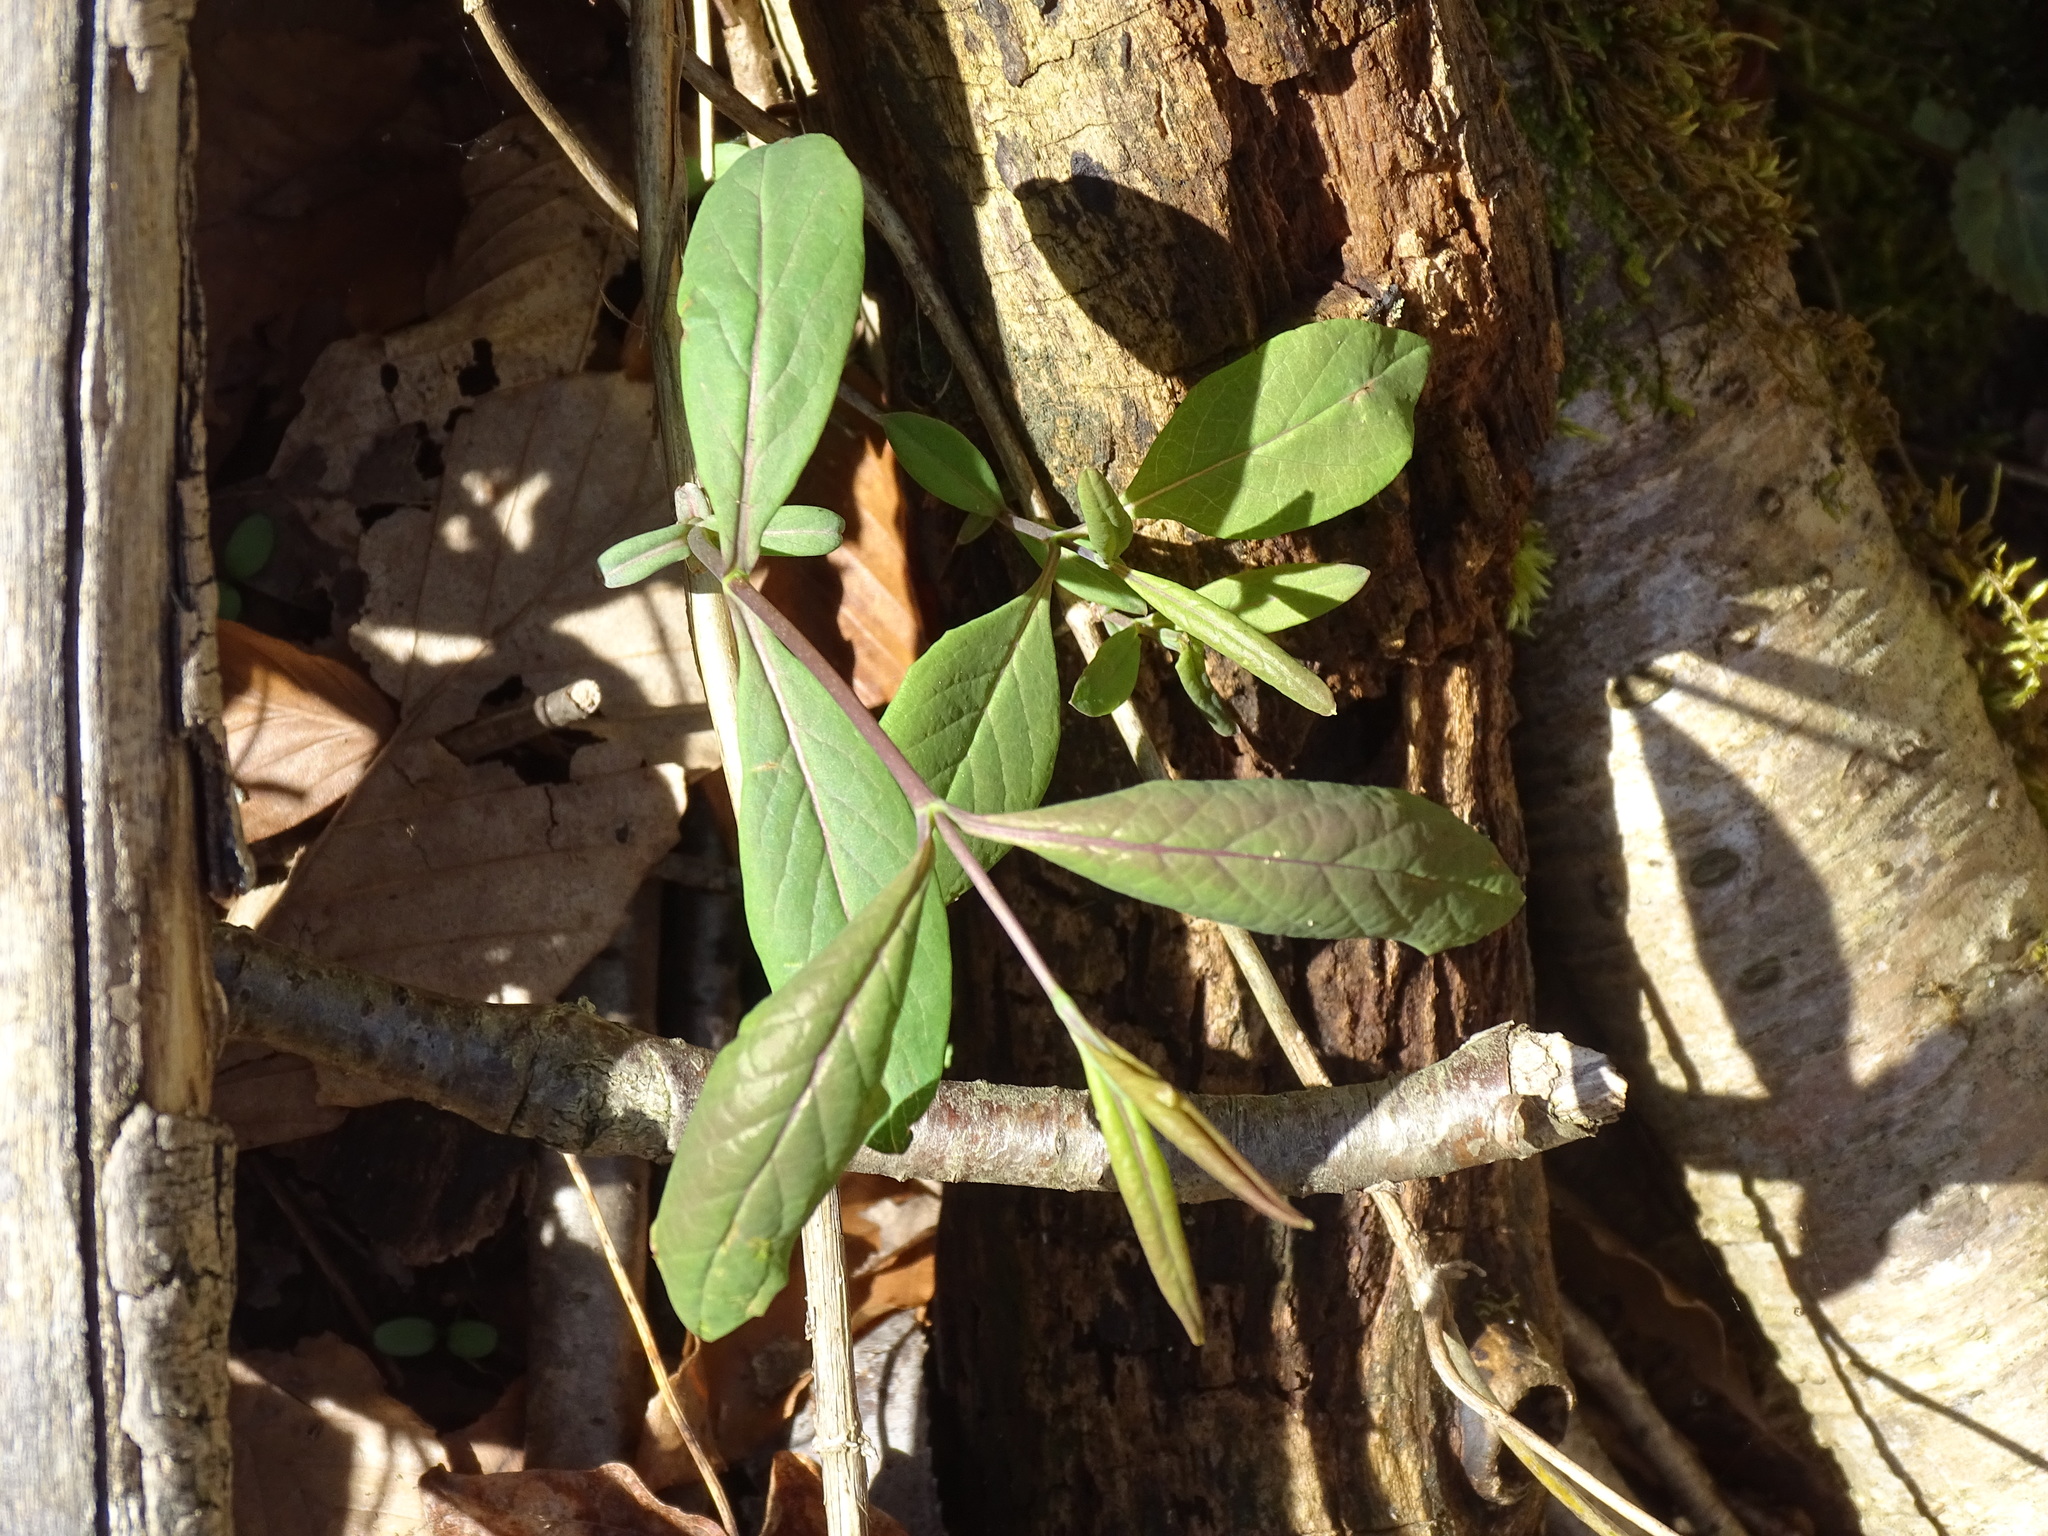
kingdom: Plantae
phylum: Tracheophyta
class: Magnoliopsida
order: Dipsacales
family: Caprifoliaceae
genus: Lonicera
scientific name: Lonicera dioica
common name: Limber honeysuckle
